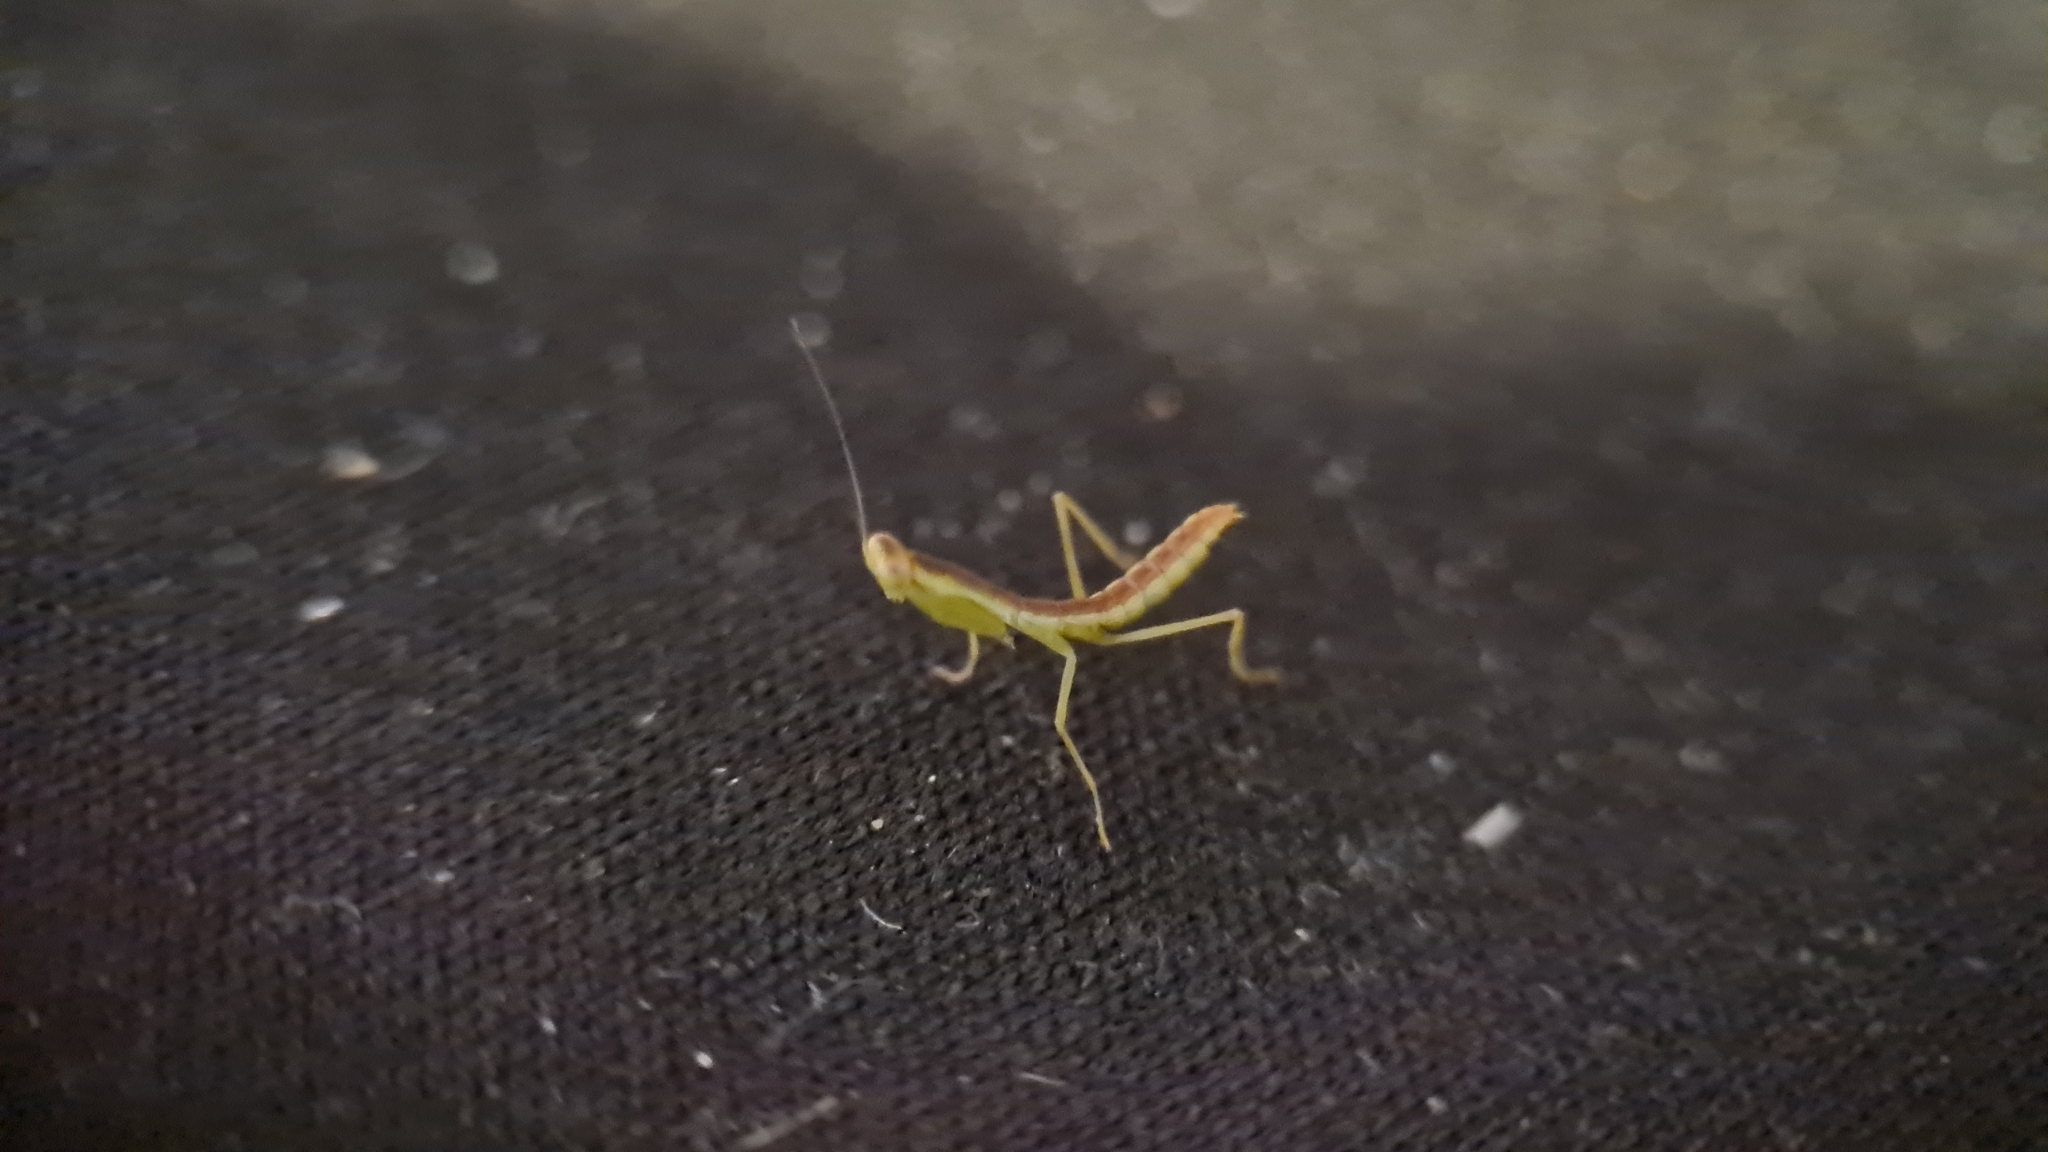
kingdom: Animalia
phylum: Arthropoda
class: Insecta
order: Mantodea
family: Mantidae
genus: Orthodera
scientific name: Orthodera ministralis
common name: Mantis
